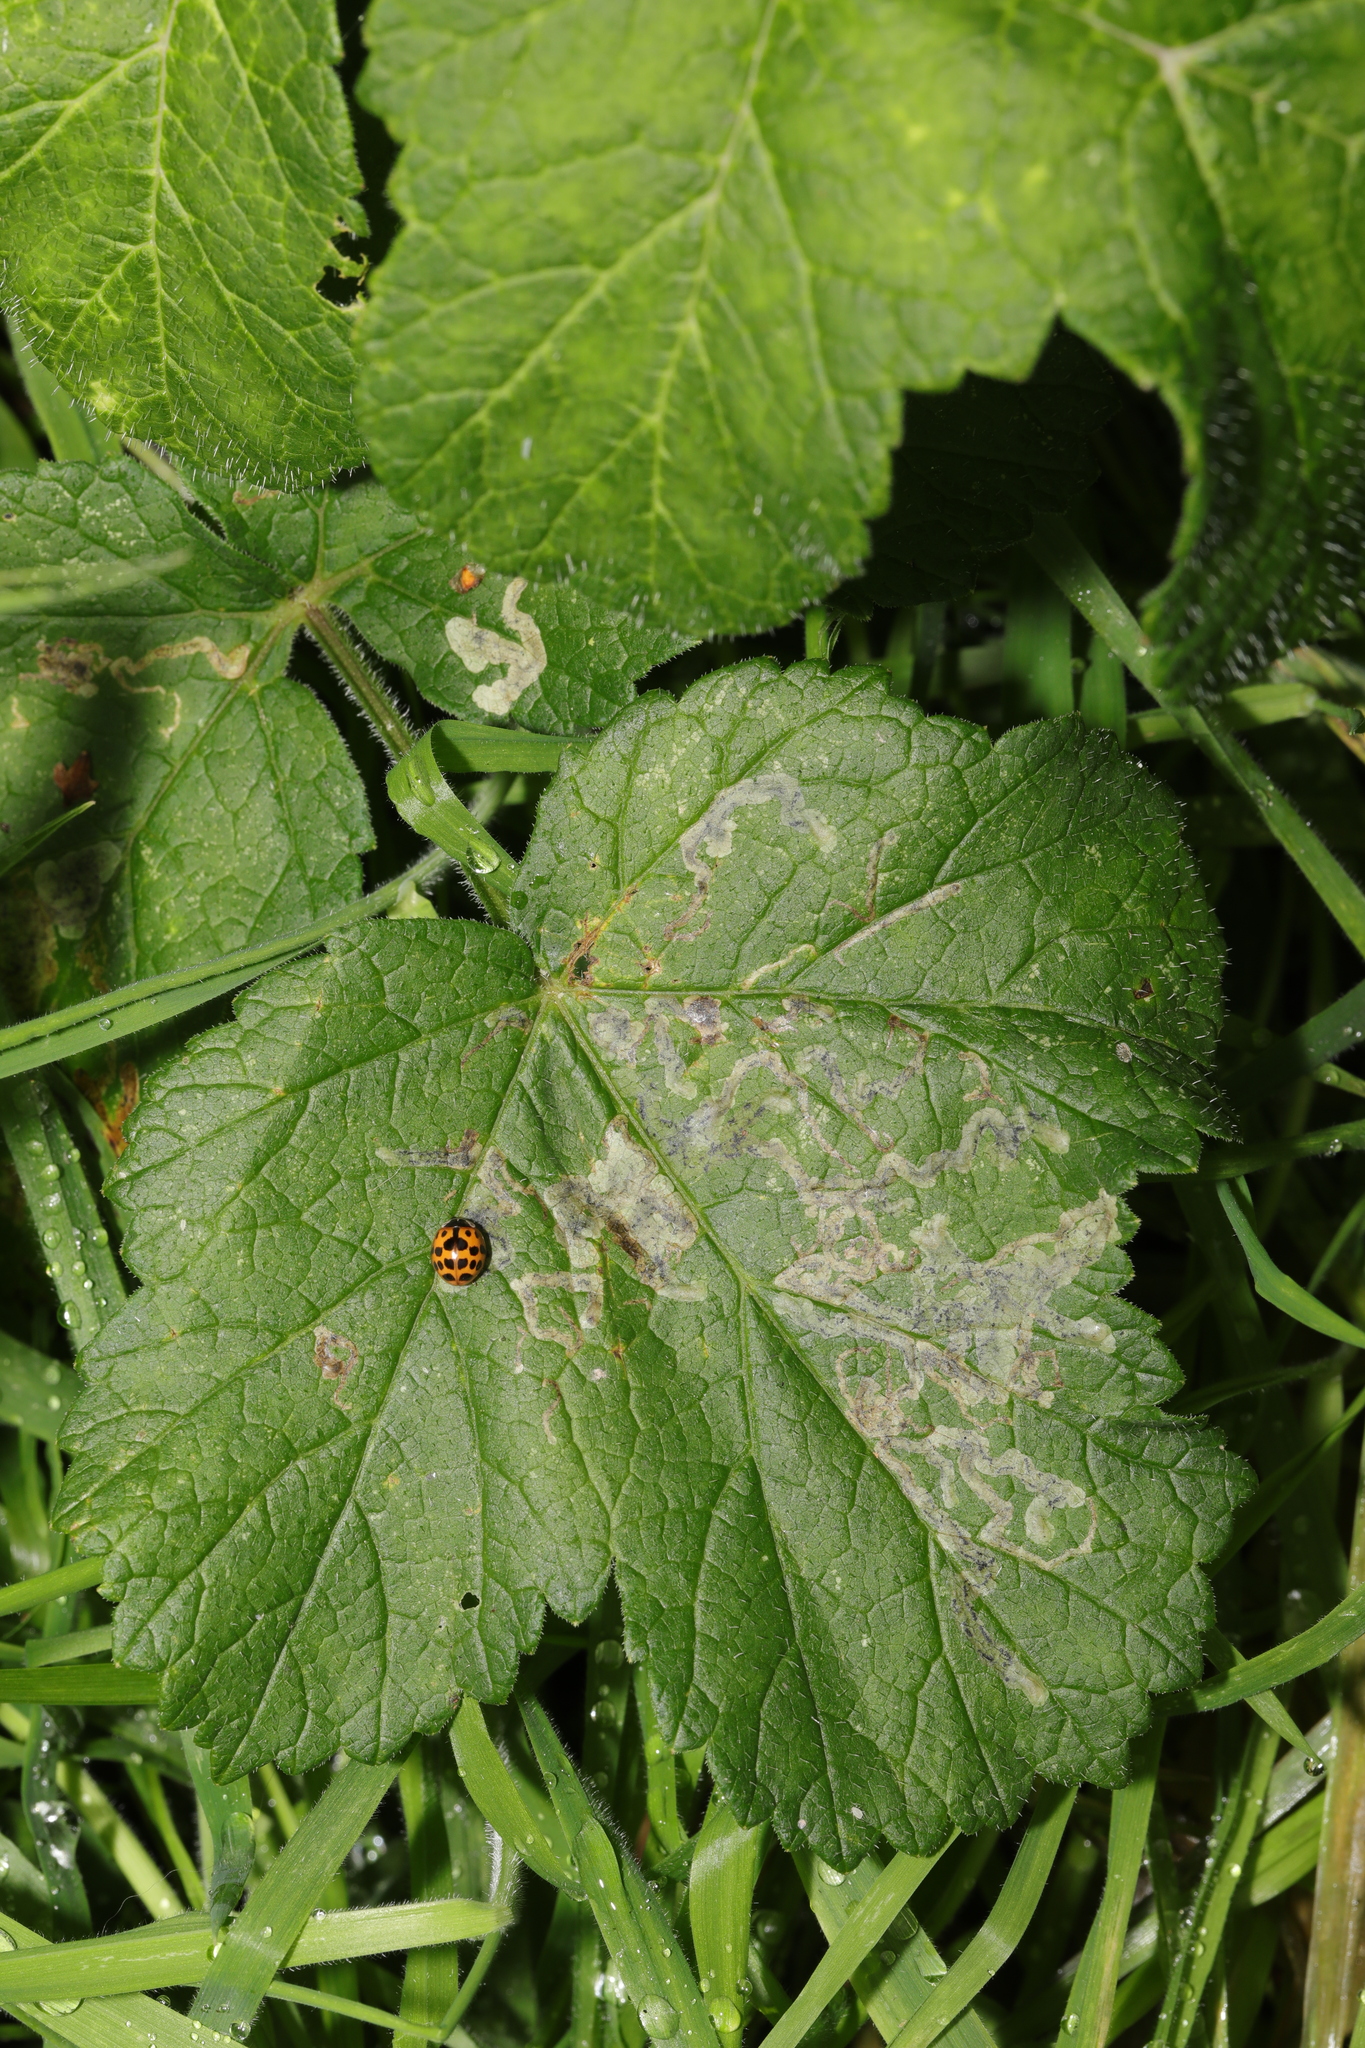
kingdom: Plantae
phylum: Tracheophyta
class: Magnoliopsida
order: Apiales
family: Apiaceae
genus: Heracleum
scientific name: Heracleum sphondylium
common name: Hogweed
